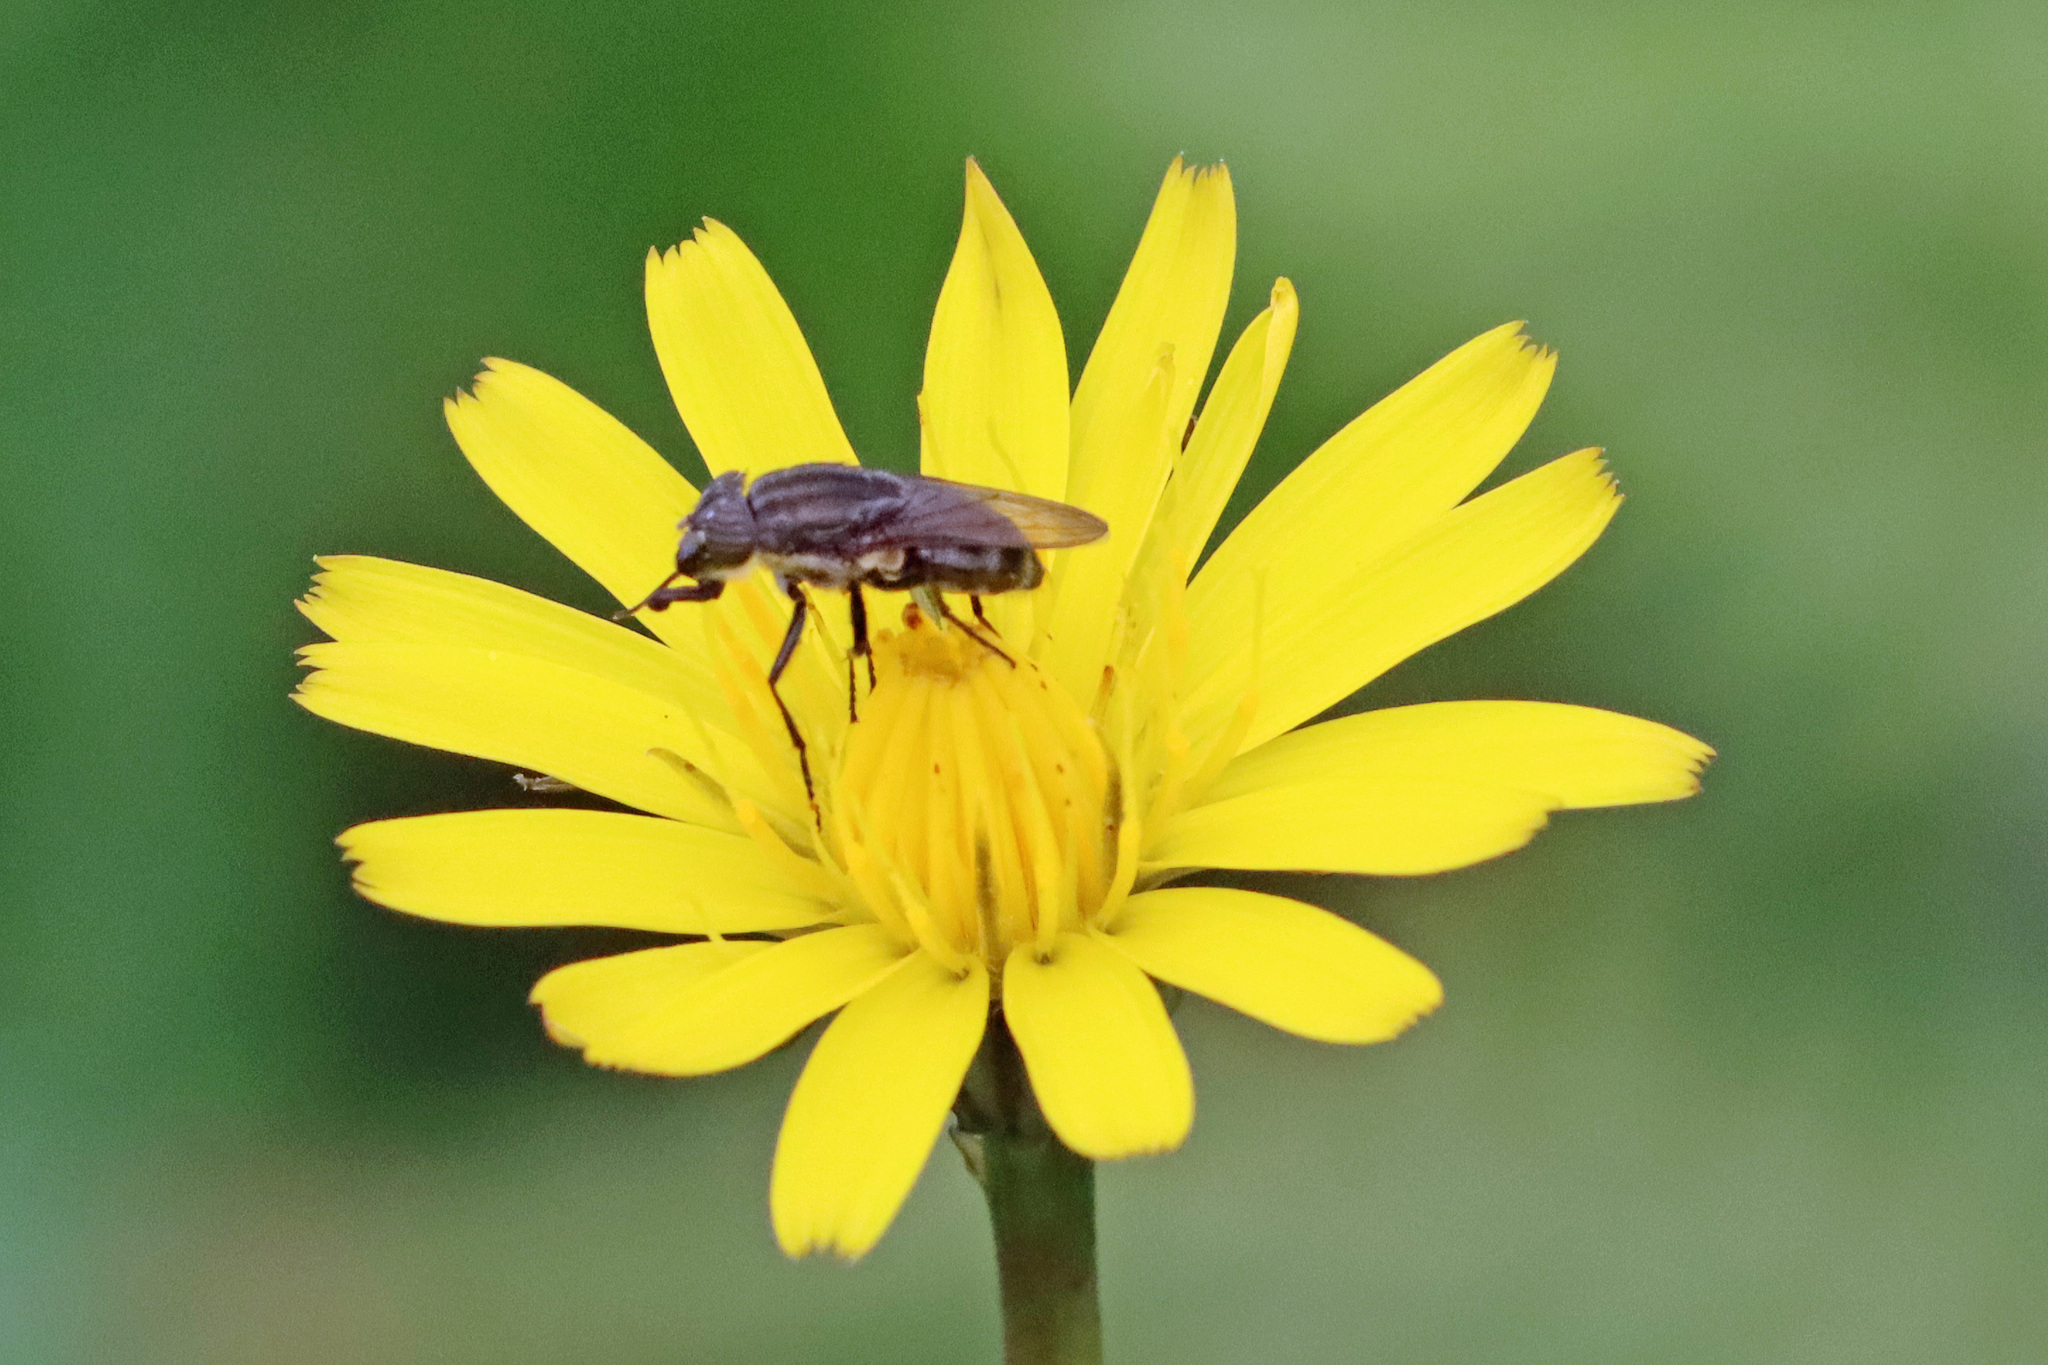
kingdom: Animalia
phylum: Arthropoda
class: Insecta
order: Diptera
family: Calliphoridae
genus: Stomorhina
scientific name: Stomorhina lunata
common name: Locust blowfly
